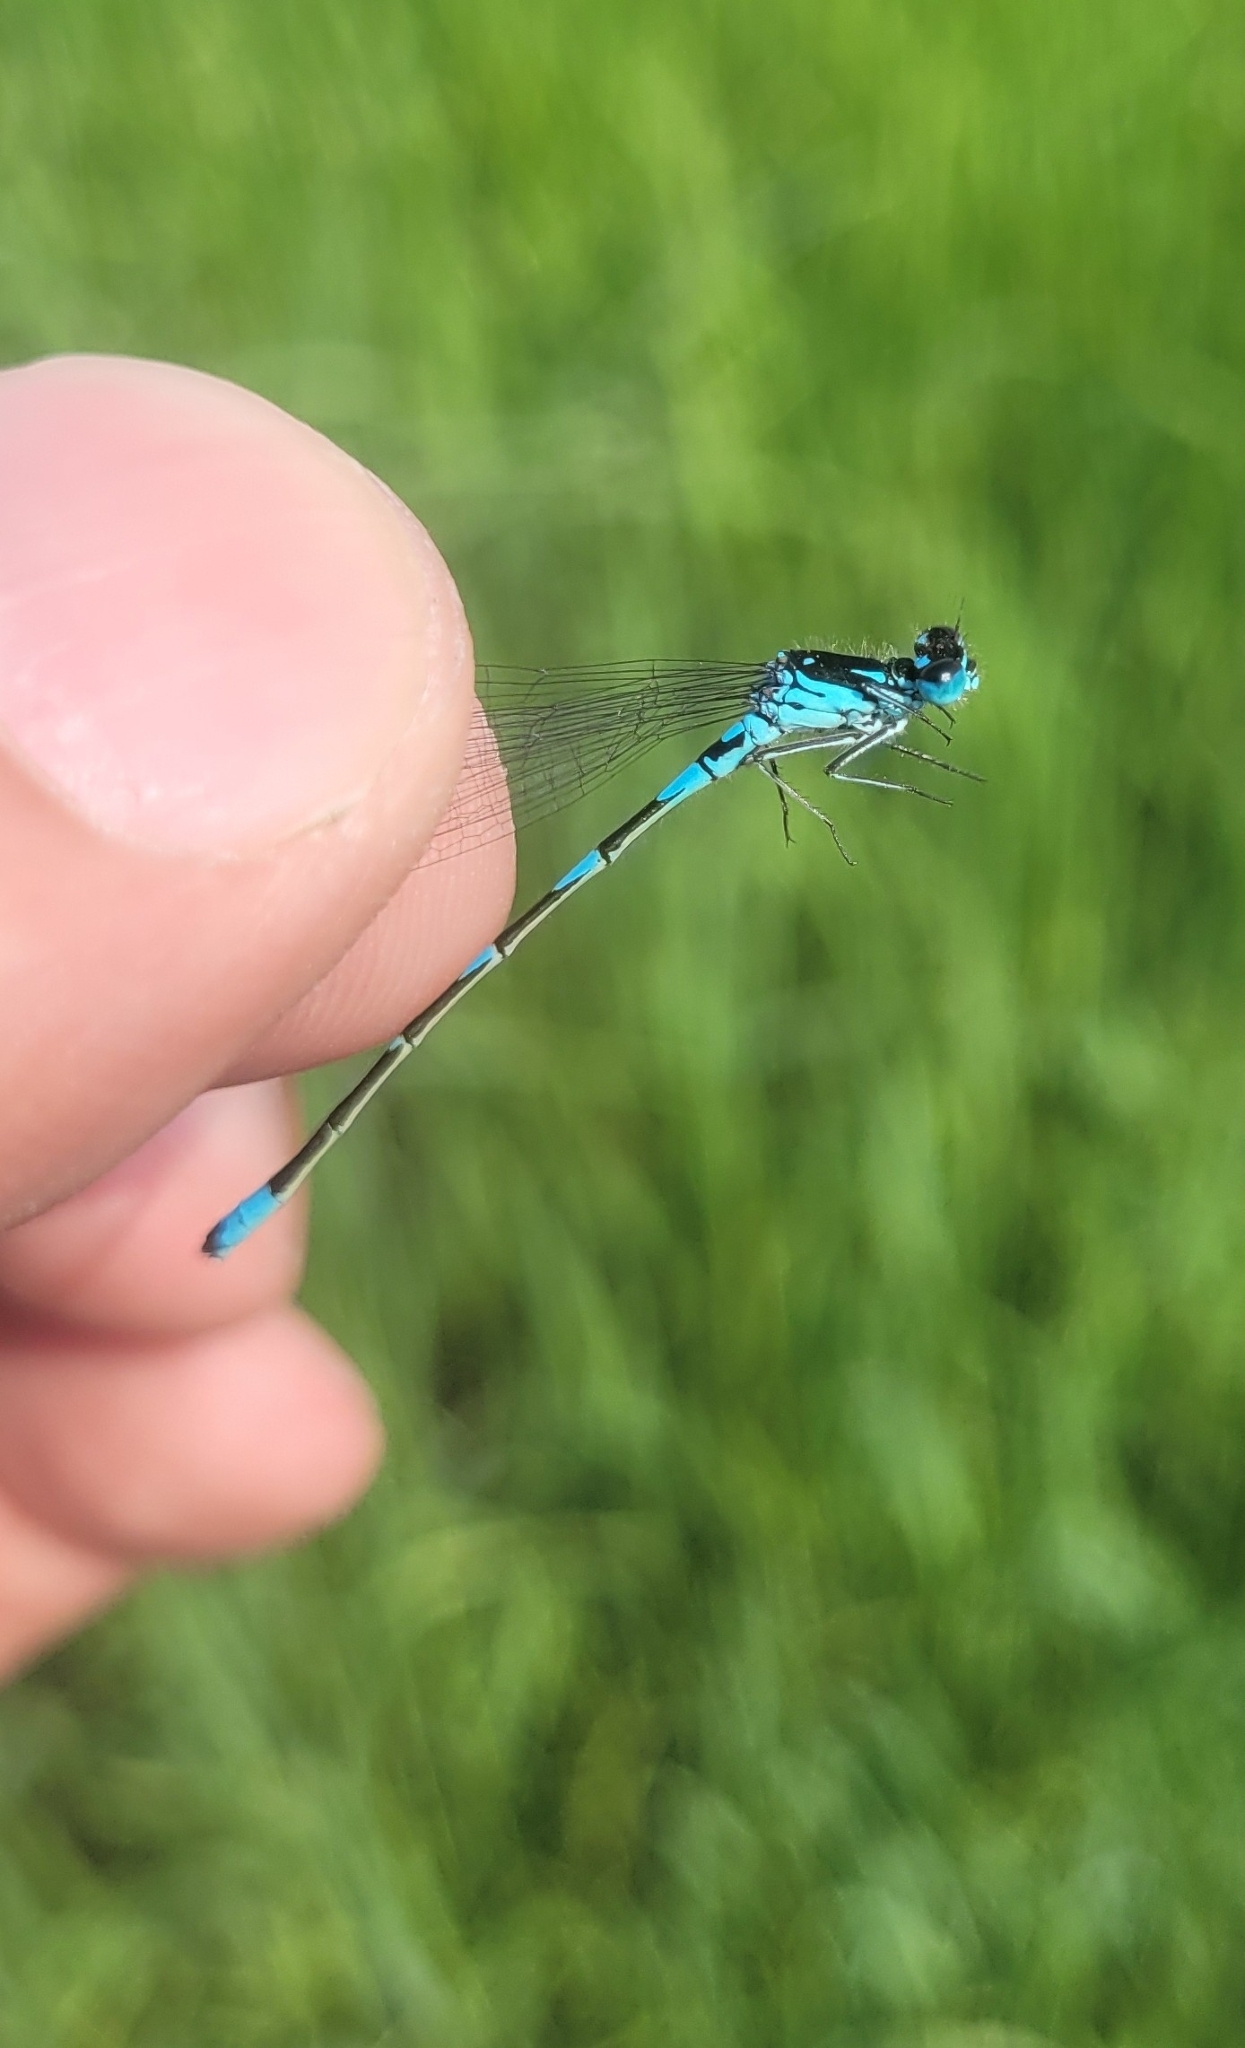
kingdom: Animalia
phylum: Arthropoda
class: Insecta
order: Odonata
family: Coenagrionidae
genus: Coenagrion
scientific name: Coenagrion pulchellum
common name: Variable bluet
